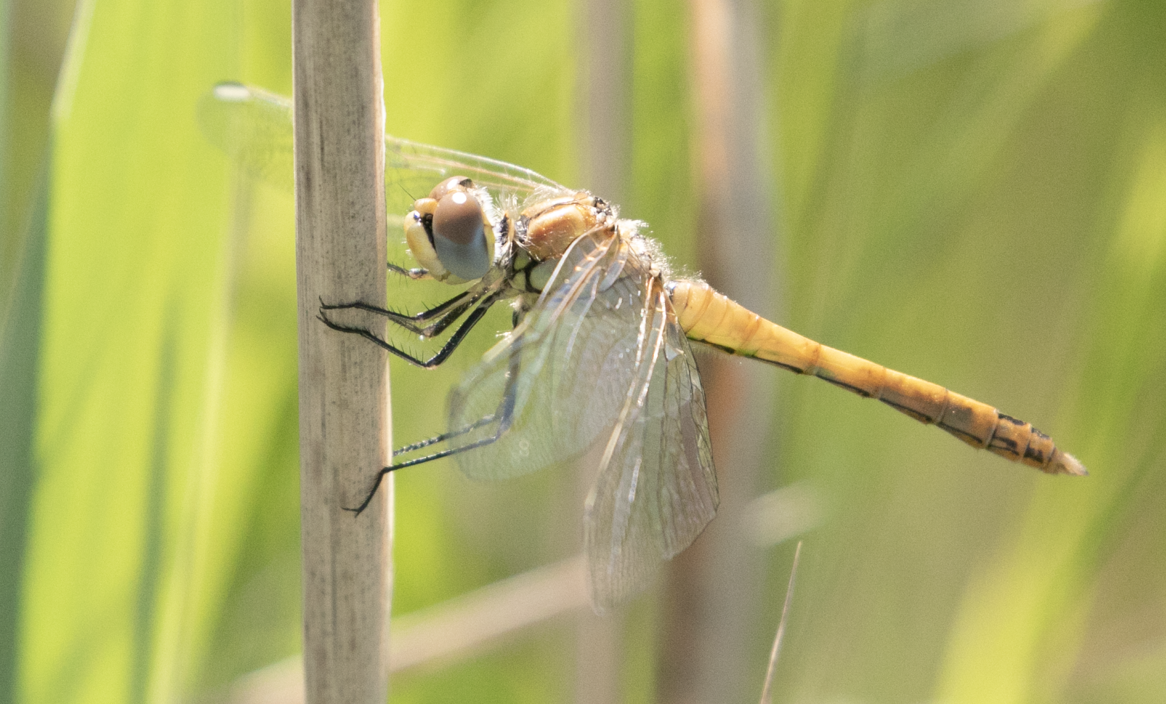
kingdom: Animalia
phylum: Arthropoda
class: Insecta
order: Odonata
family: Libellulidae
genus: Sympetrum
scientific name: Sympetrum fonscolombii
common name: Red-veined darter
